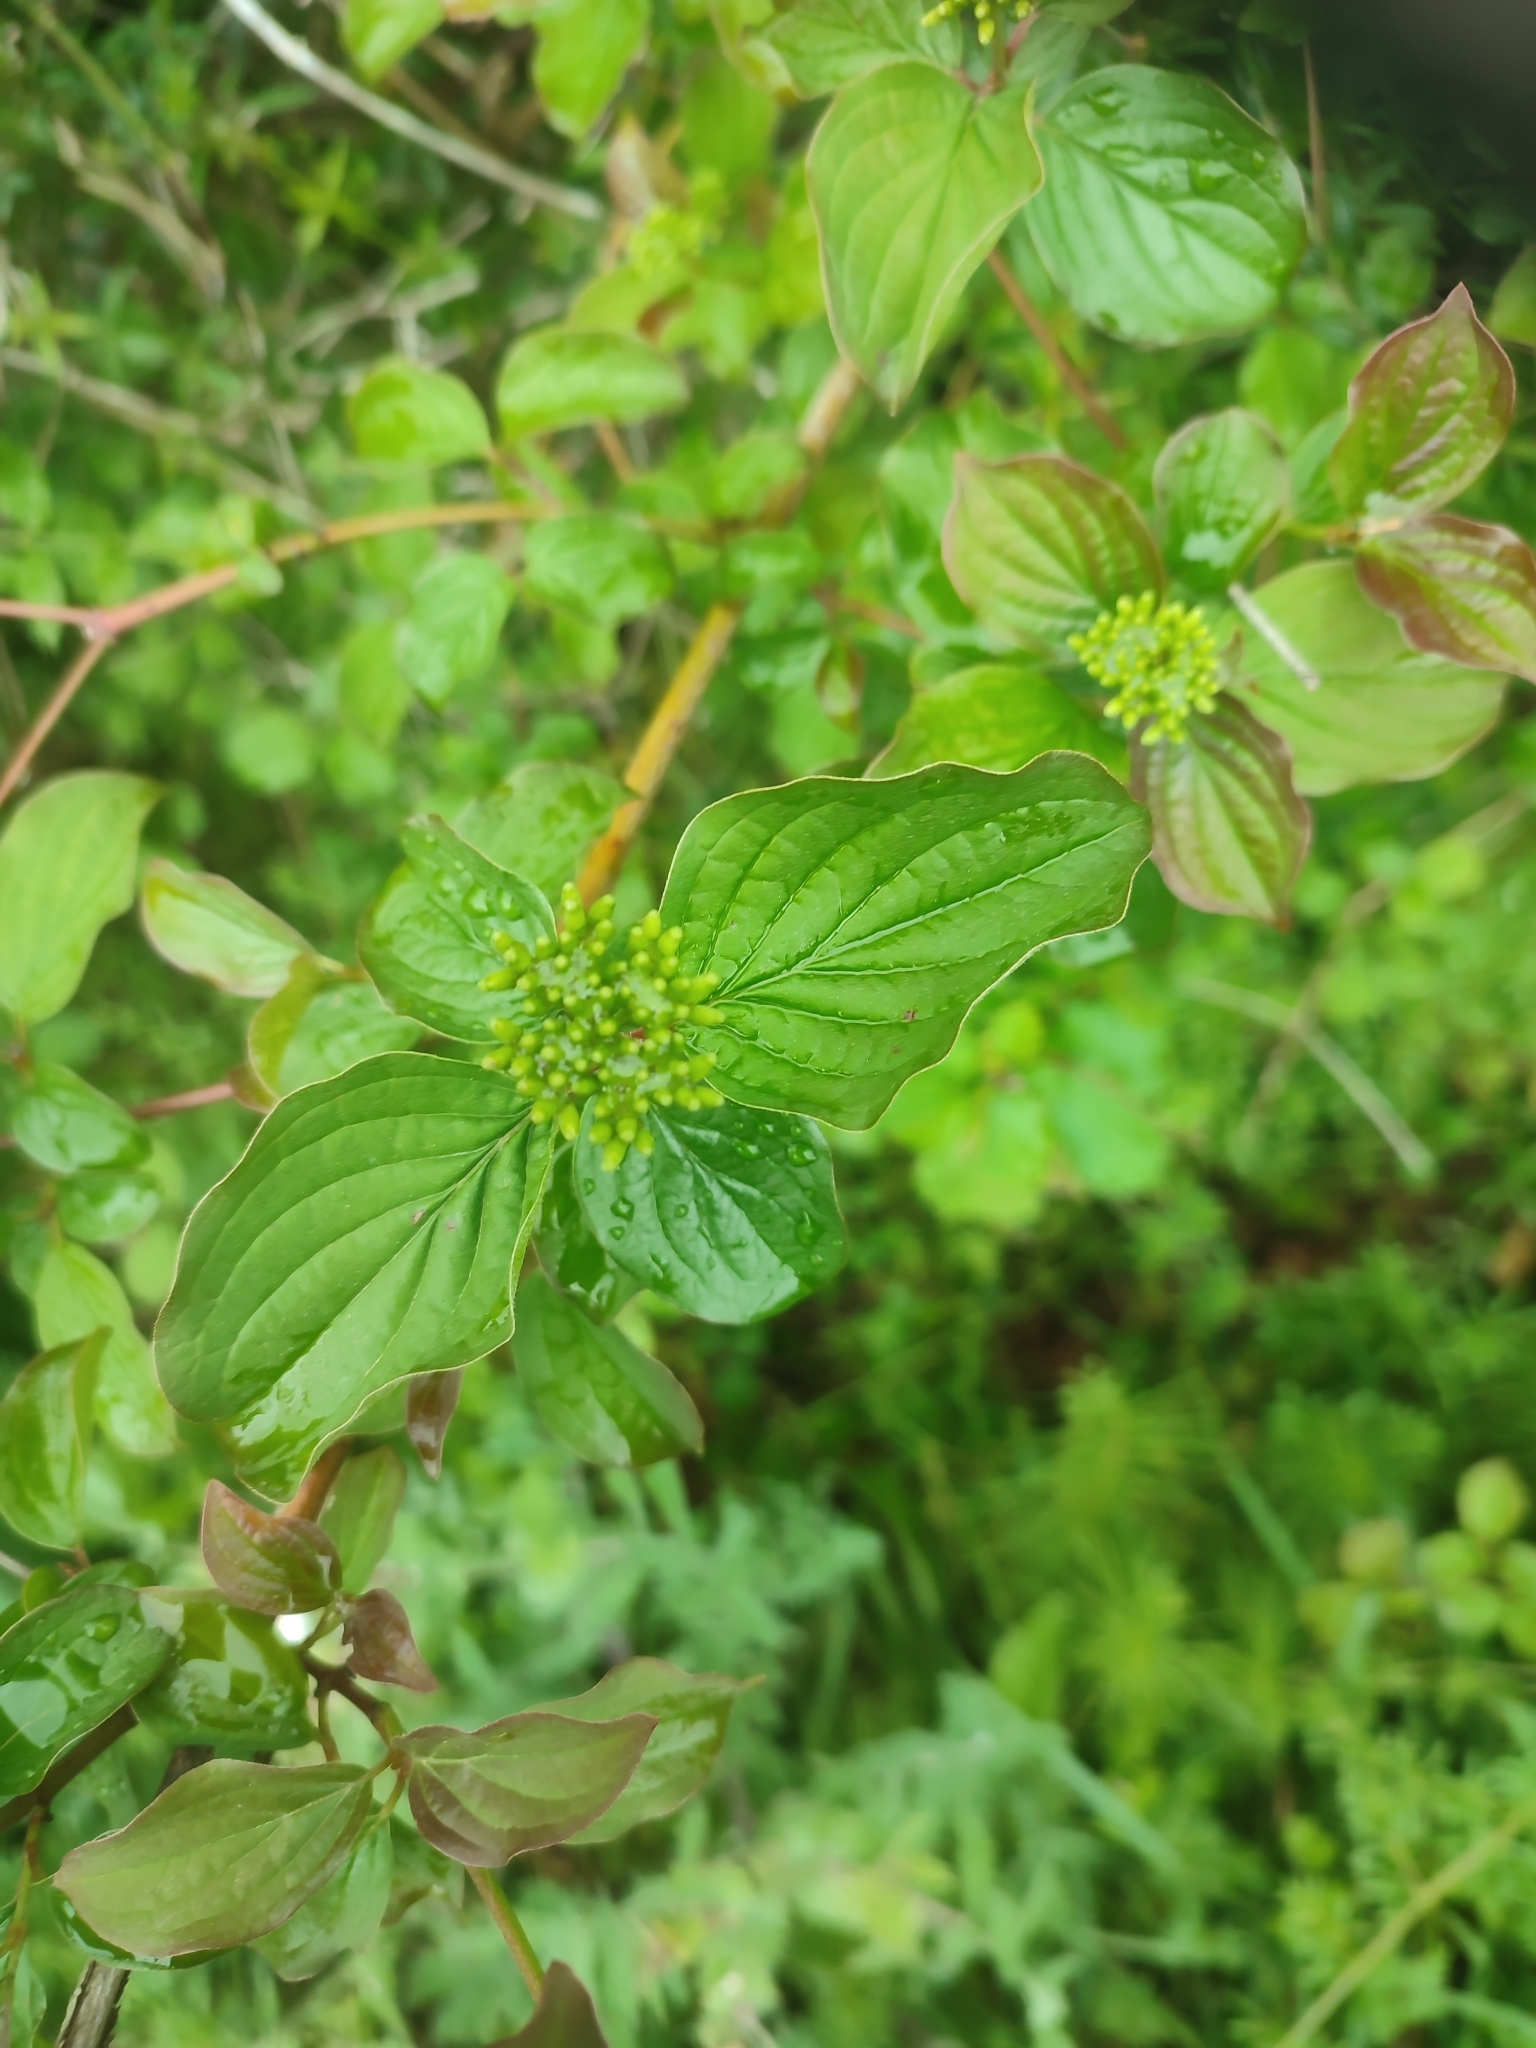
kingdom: Plantae
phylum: Tracheophyta
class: Magnoliopsida
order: Cornales
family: Cornaceae
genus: Cornus
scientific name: Cornus sanguinea
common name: Dogwood
